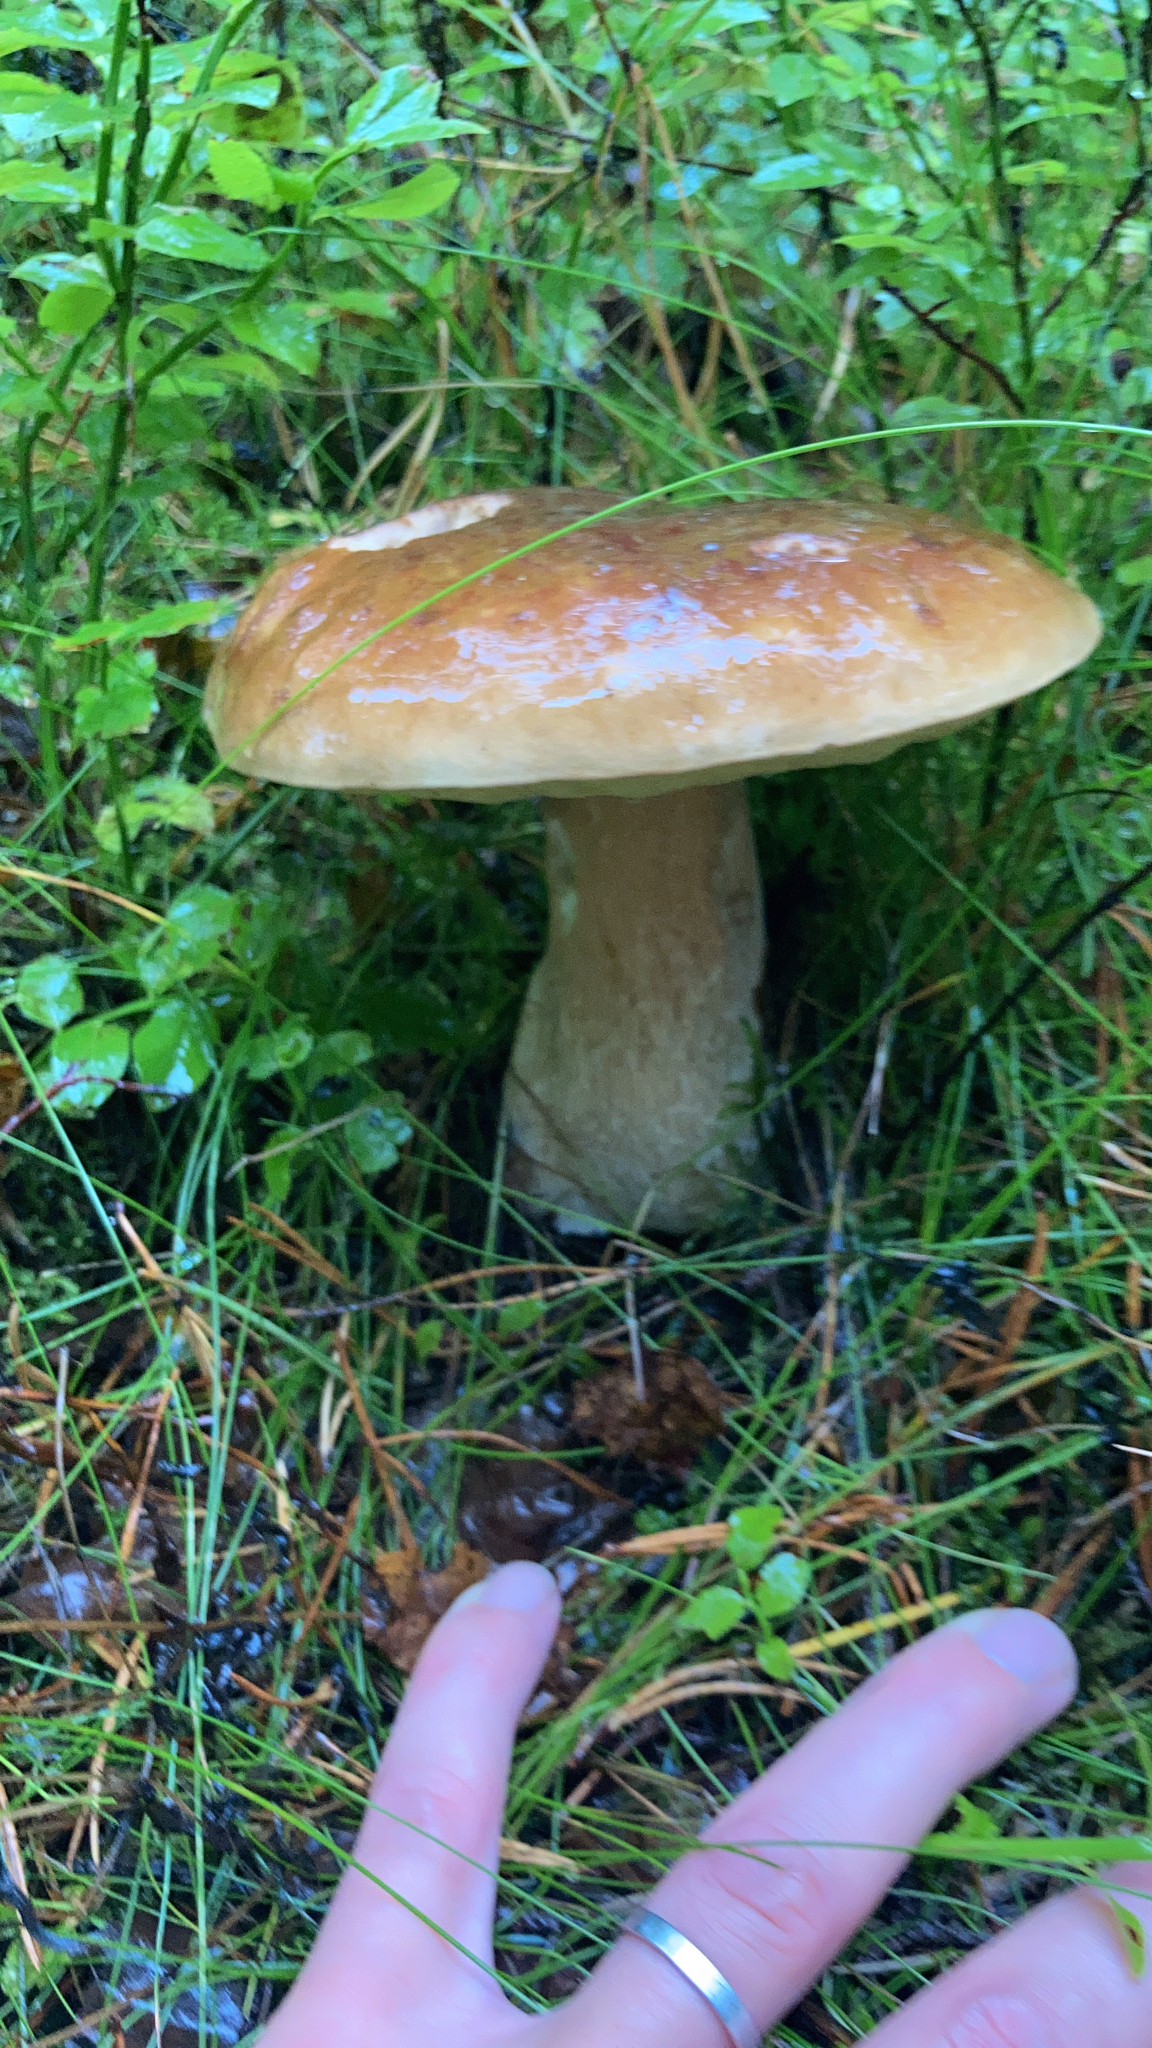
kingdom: Fungi
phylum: Basidiomycota
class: Agaricomycetes
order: Boletales
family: Boletaceae
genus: Boletus
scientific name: Boletus edulis
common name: Cep
